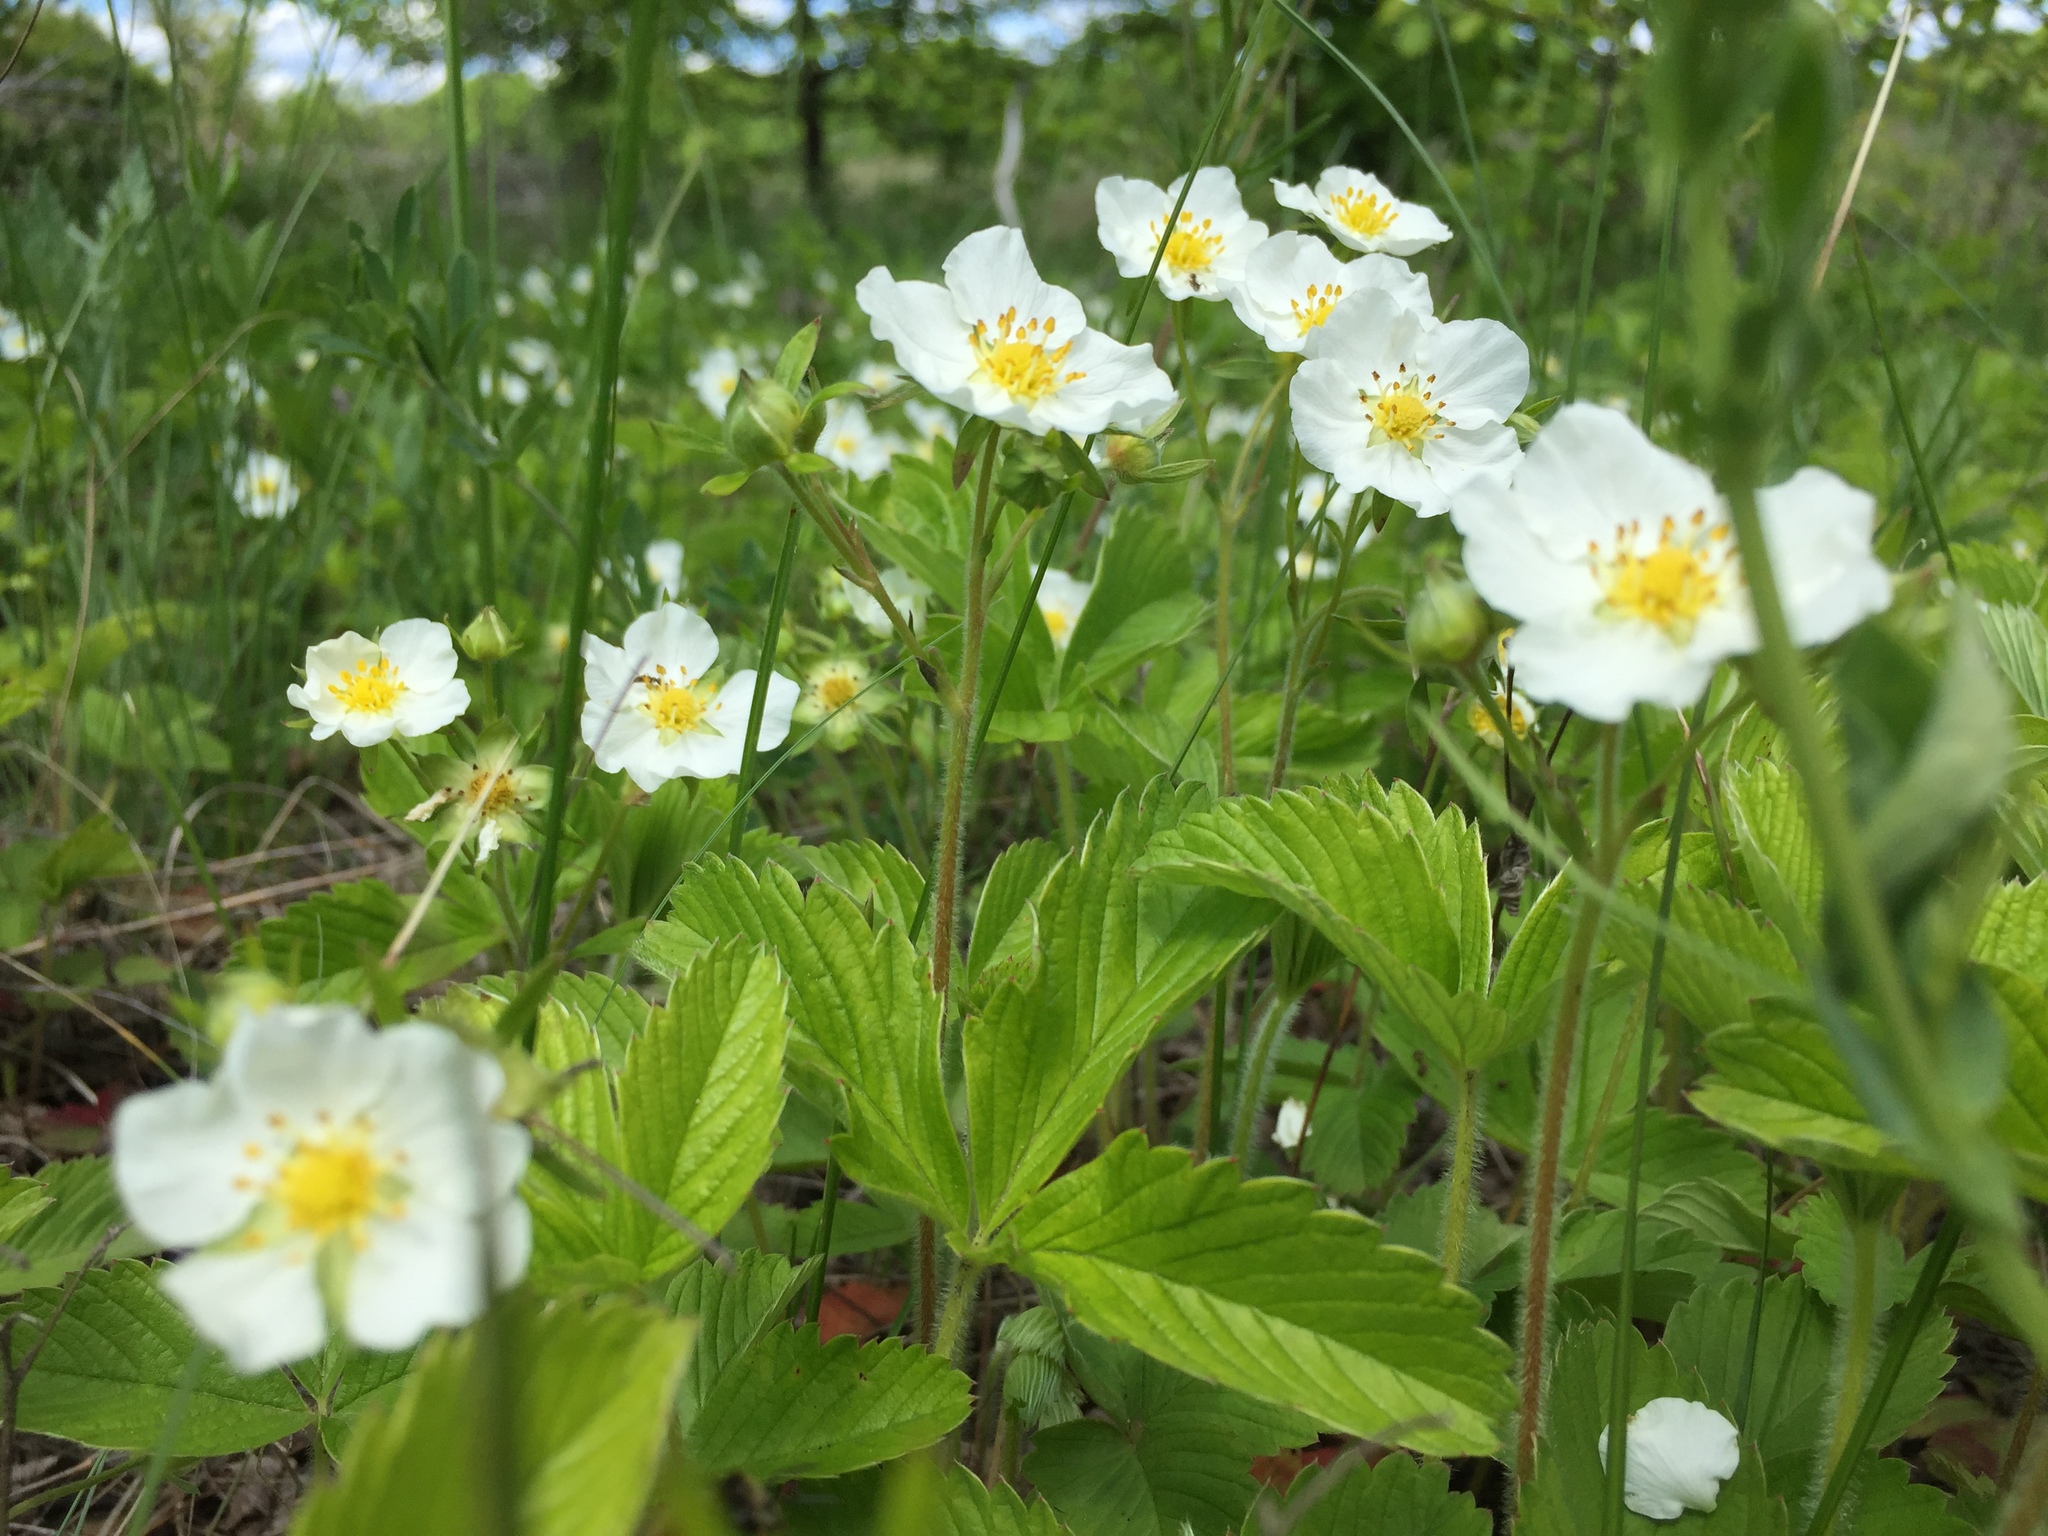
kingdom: Plantae
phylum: Tracheophyta
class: Magnoliopsida
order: Rosales
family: Rosaceae
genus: Fragaria
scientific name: Fragaria viridis
